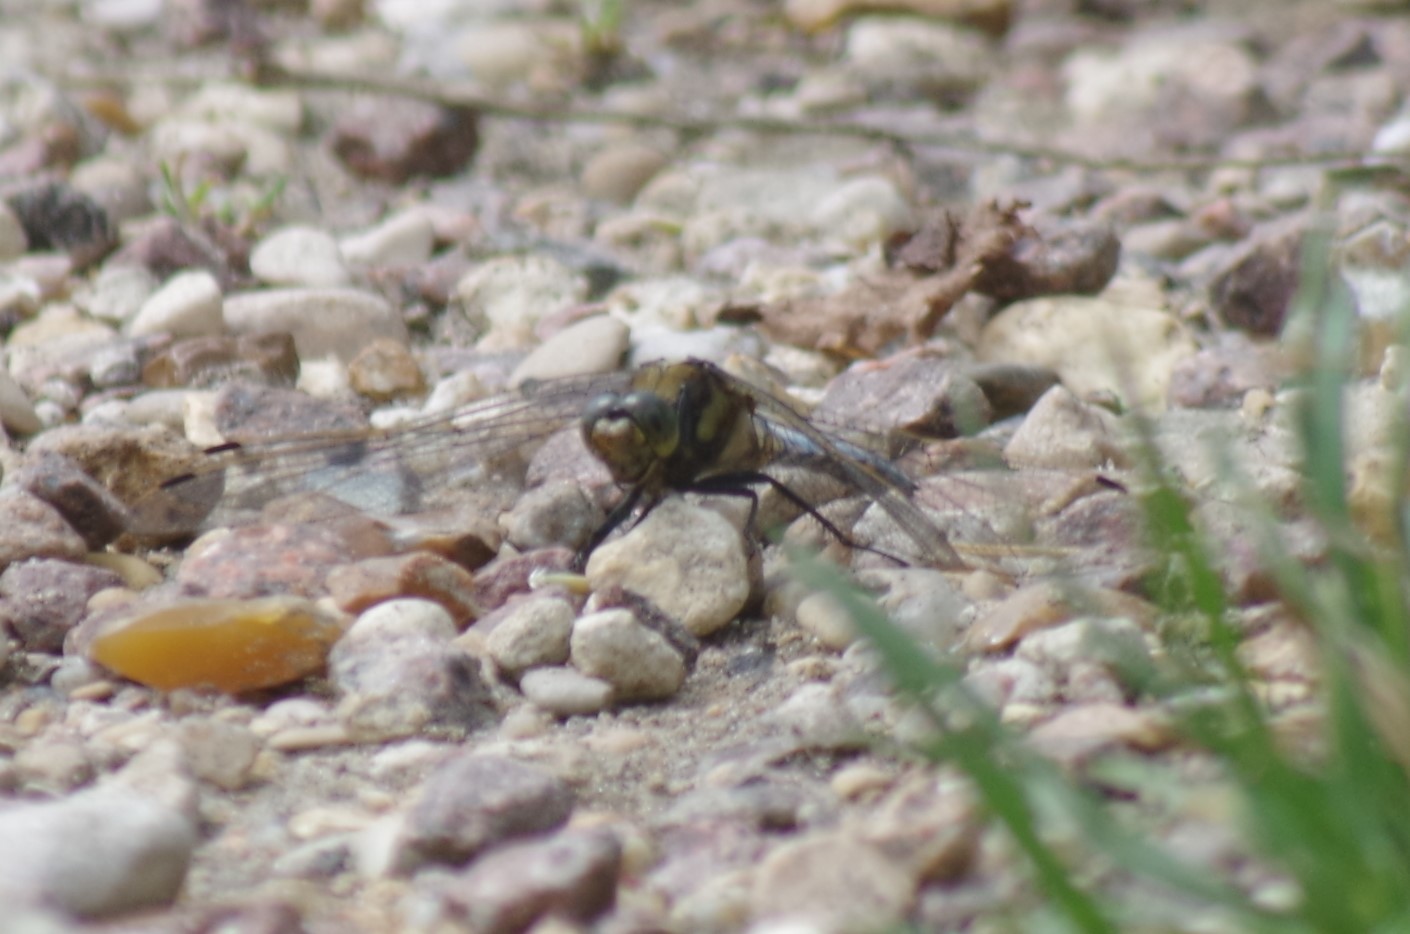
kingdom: Animalia
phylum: Arthropoda
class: Insecta
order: Odonata
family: Libellulidae
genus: Orthetrum
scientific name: Orthetrum cancellatum
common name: Black-tailed skimmer
